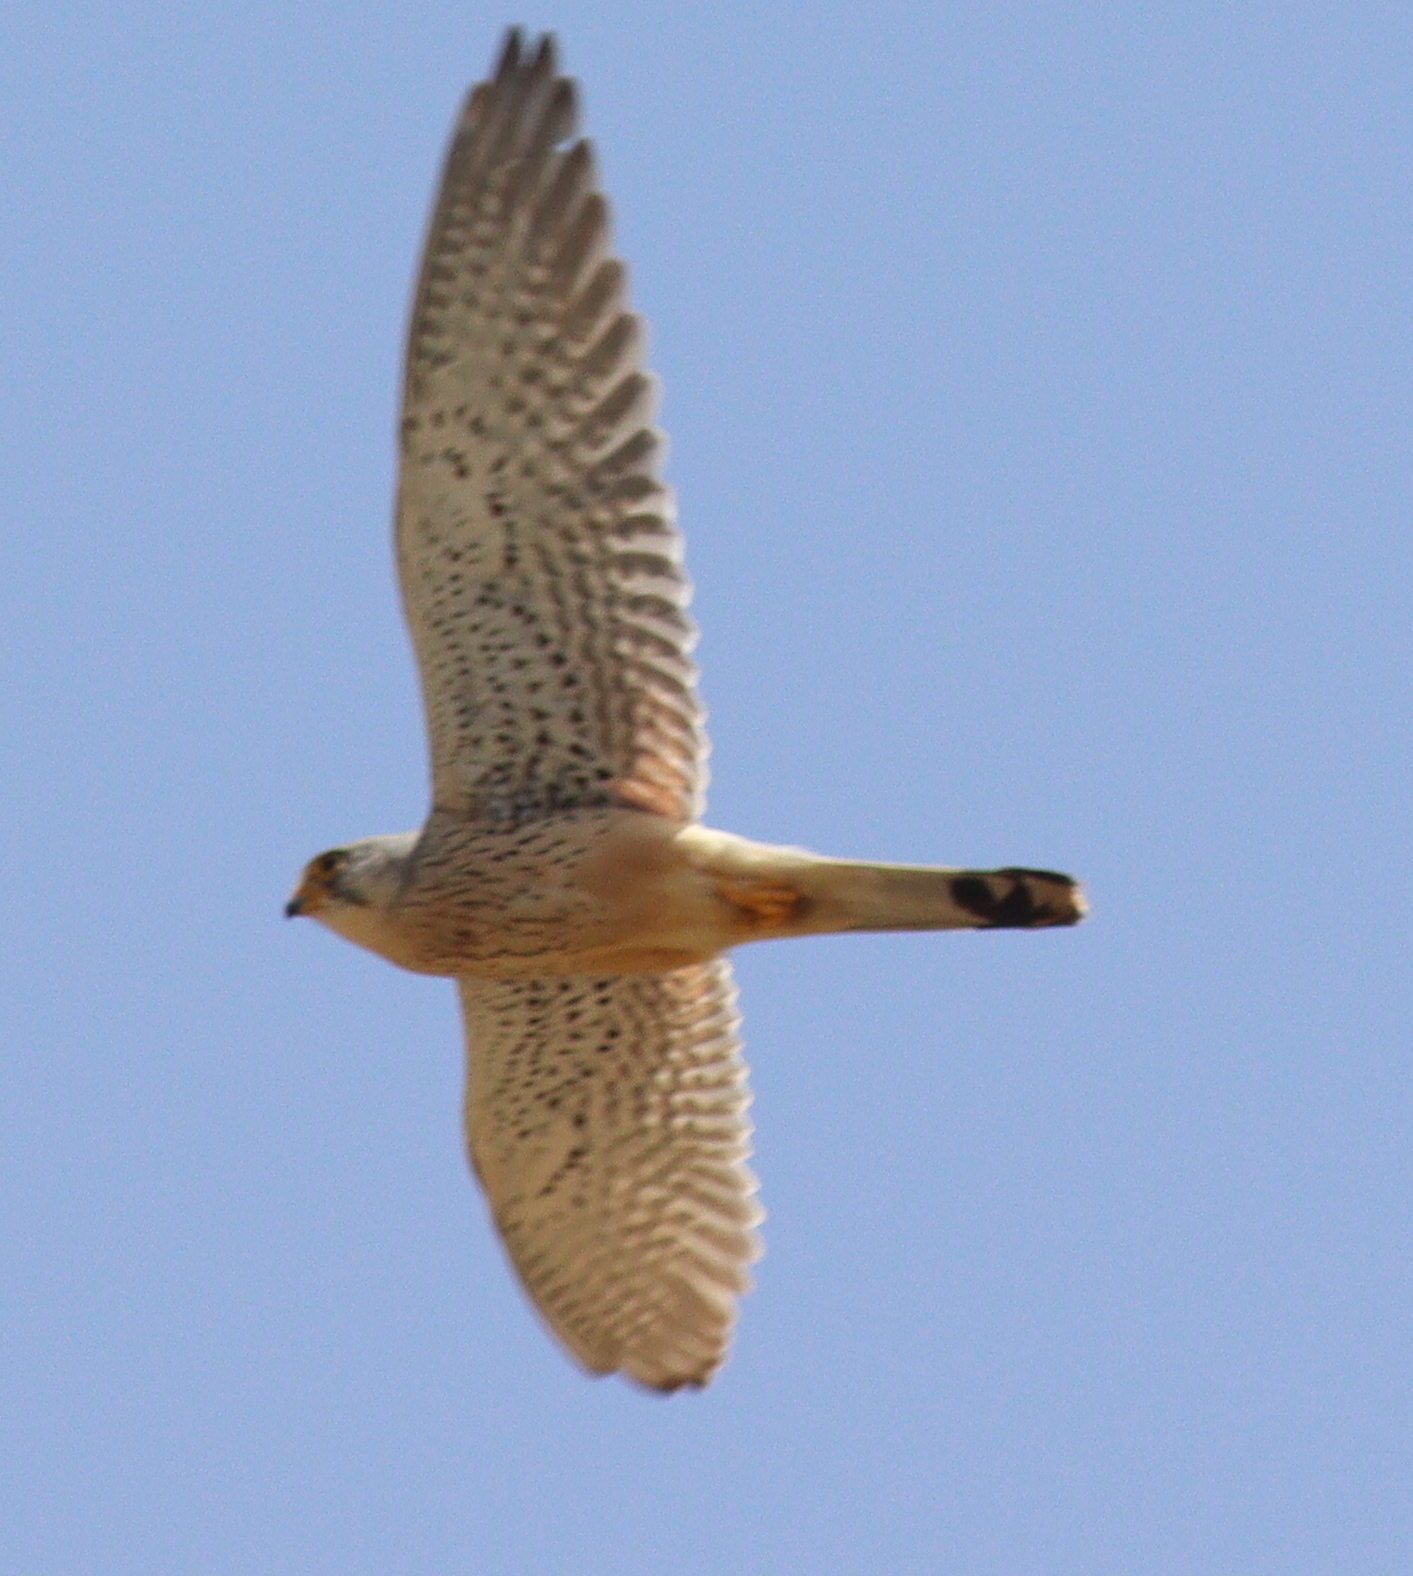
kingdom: Animalia
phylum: Chordata
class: Aves
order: Falconiformes
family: Falconidae
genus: Falco
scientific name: Falco tinnunculus
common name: Common kestrel
